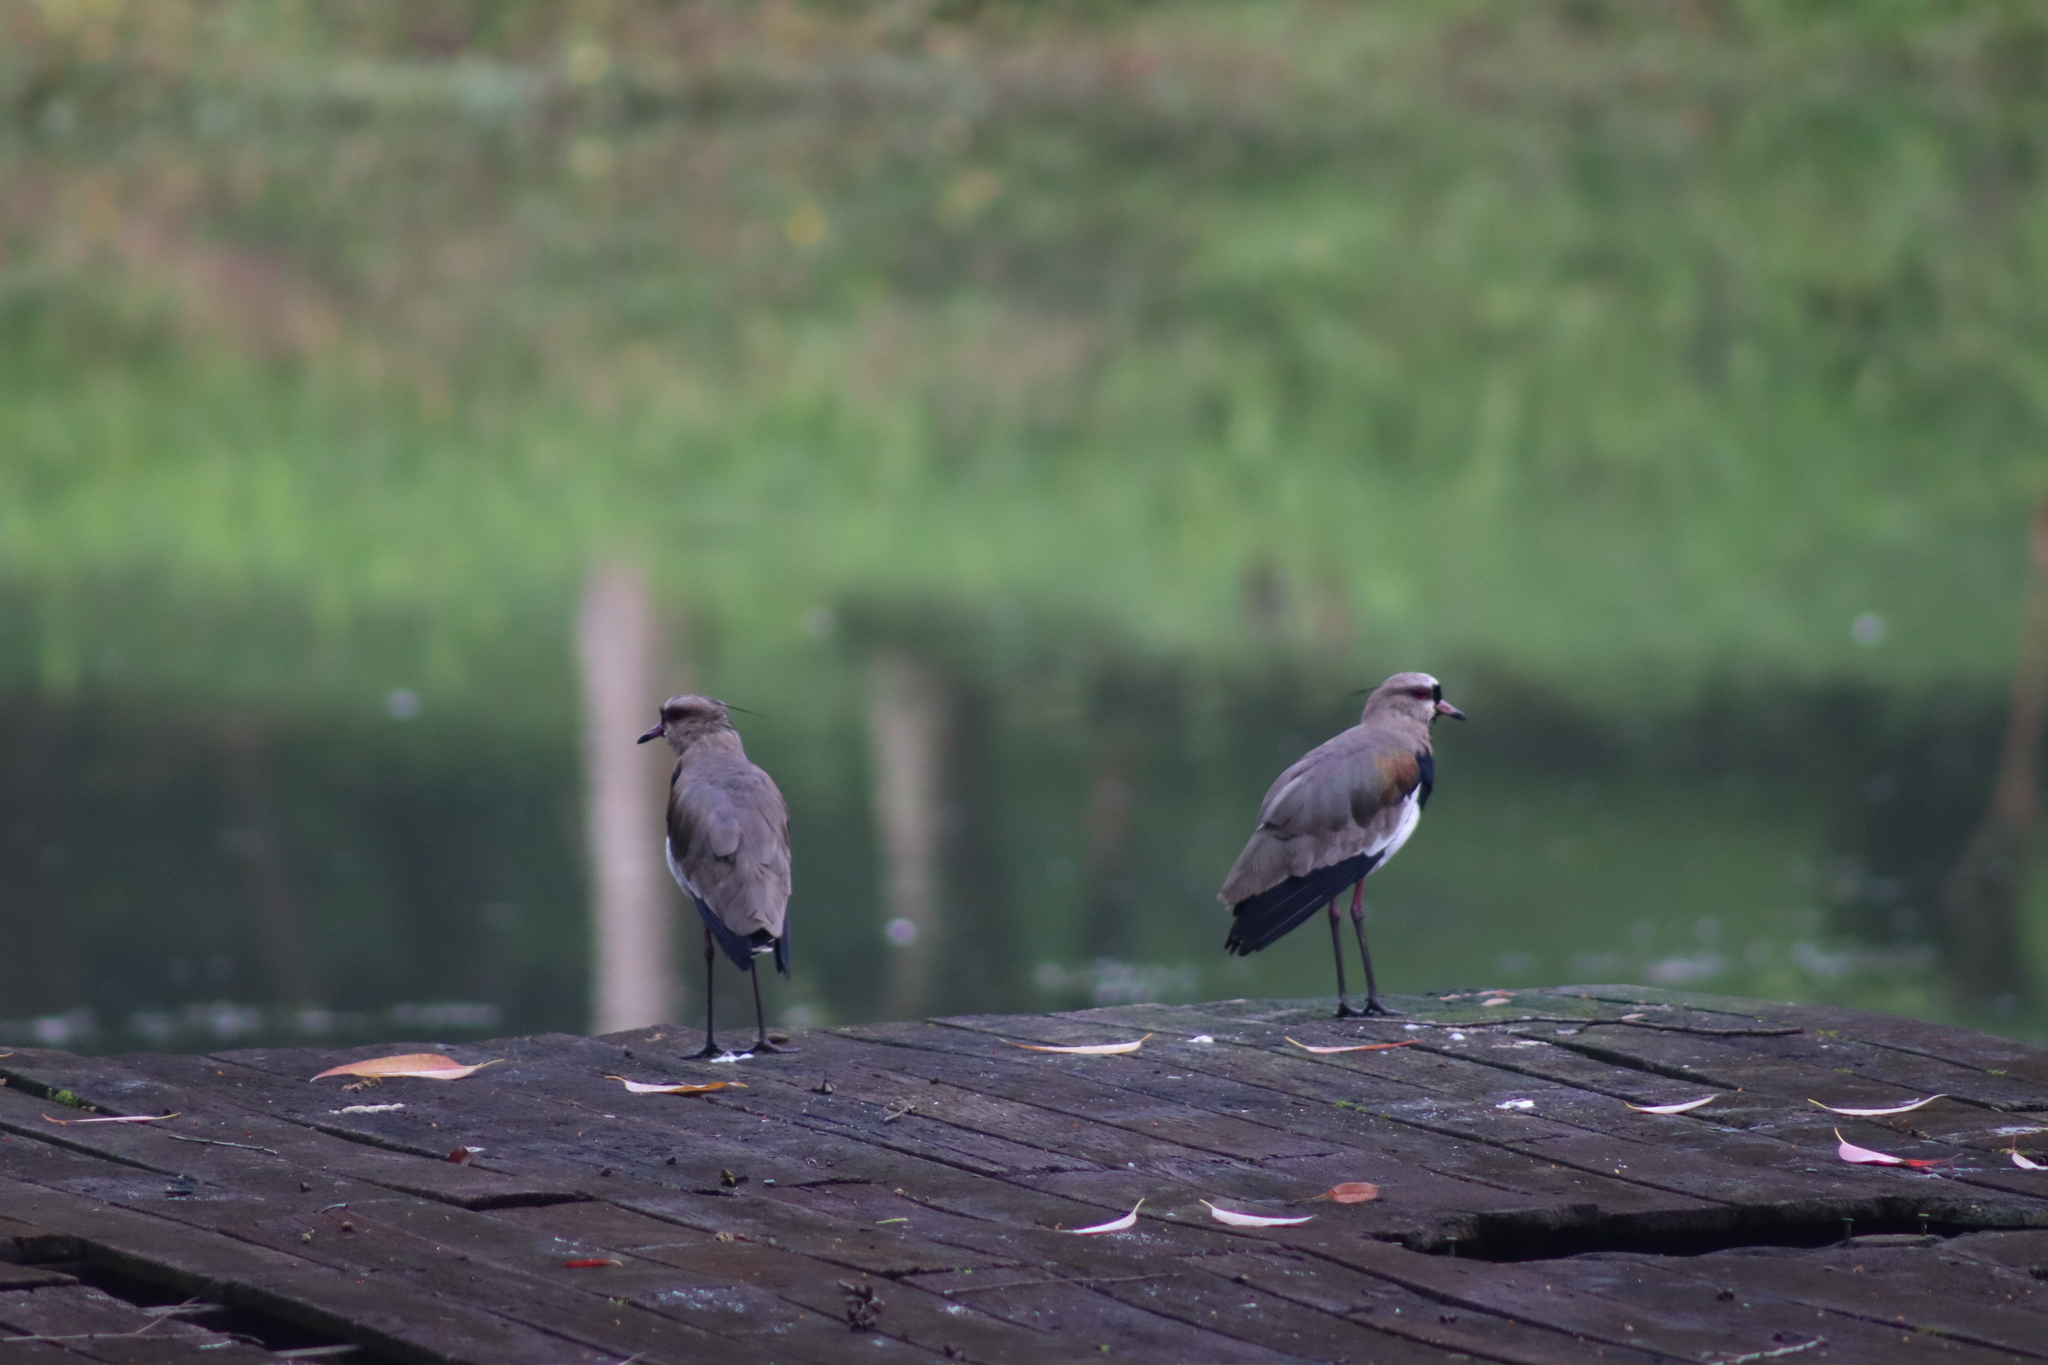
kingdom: Animalia
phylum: Chordata
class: Aves
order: Charadriiformes
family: Charadriidae
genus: Vanellus
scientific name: Vanellus chilensis
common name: Southern lapwing
